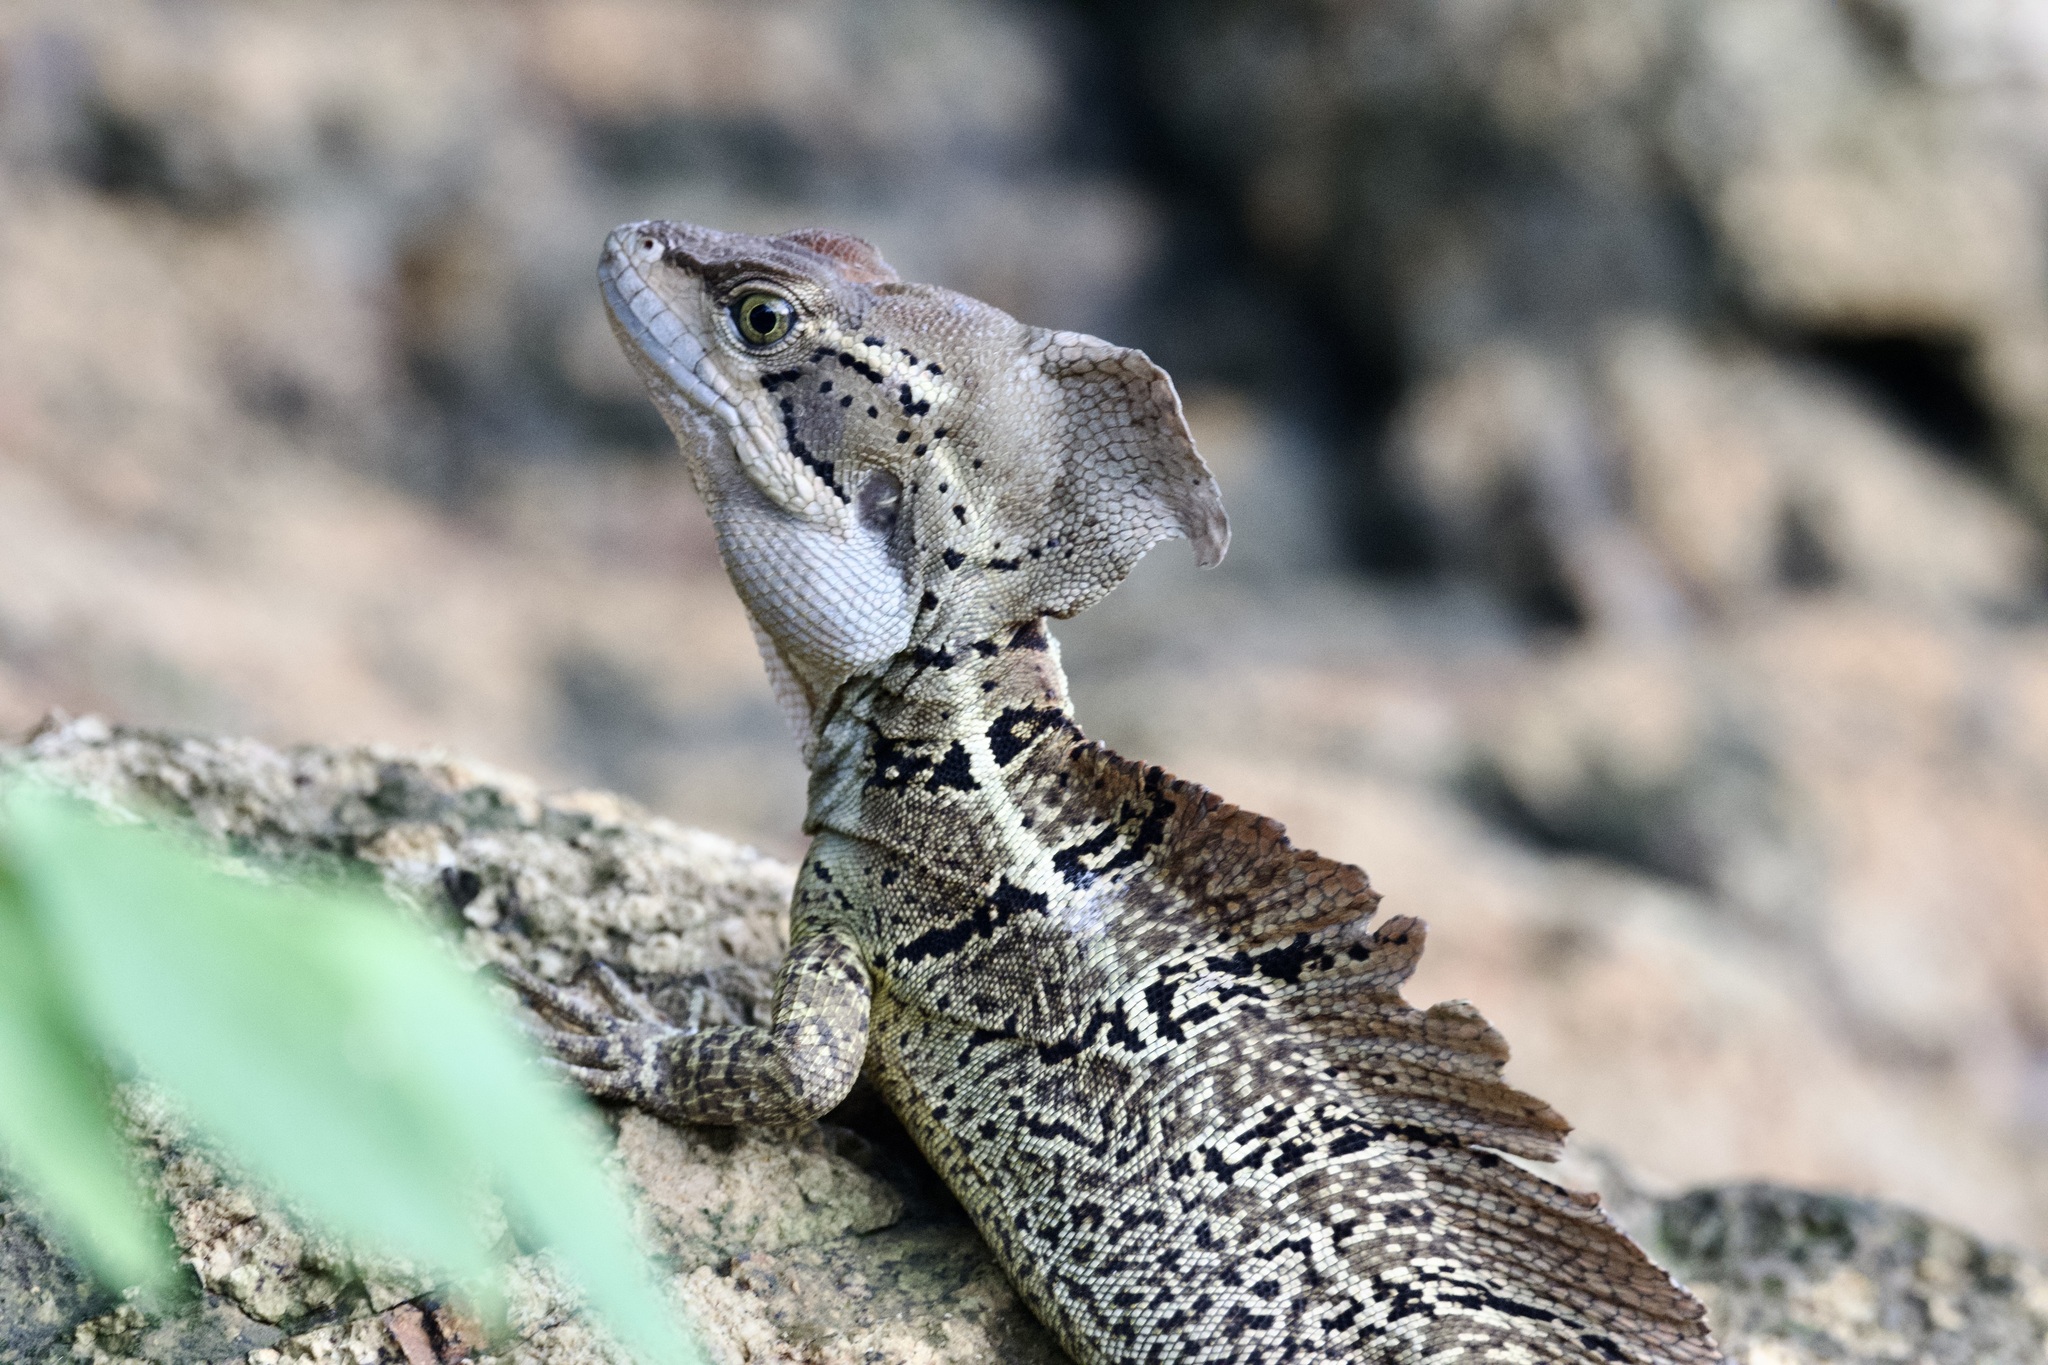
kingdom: Animalia
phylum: Chordata
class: Squamata
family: Corytophanidae
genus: Basiliscus
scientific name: Basiliscus basiliscus
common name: Common basilisk
